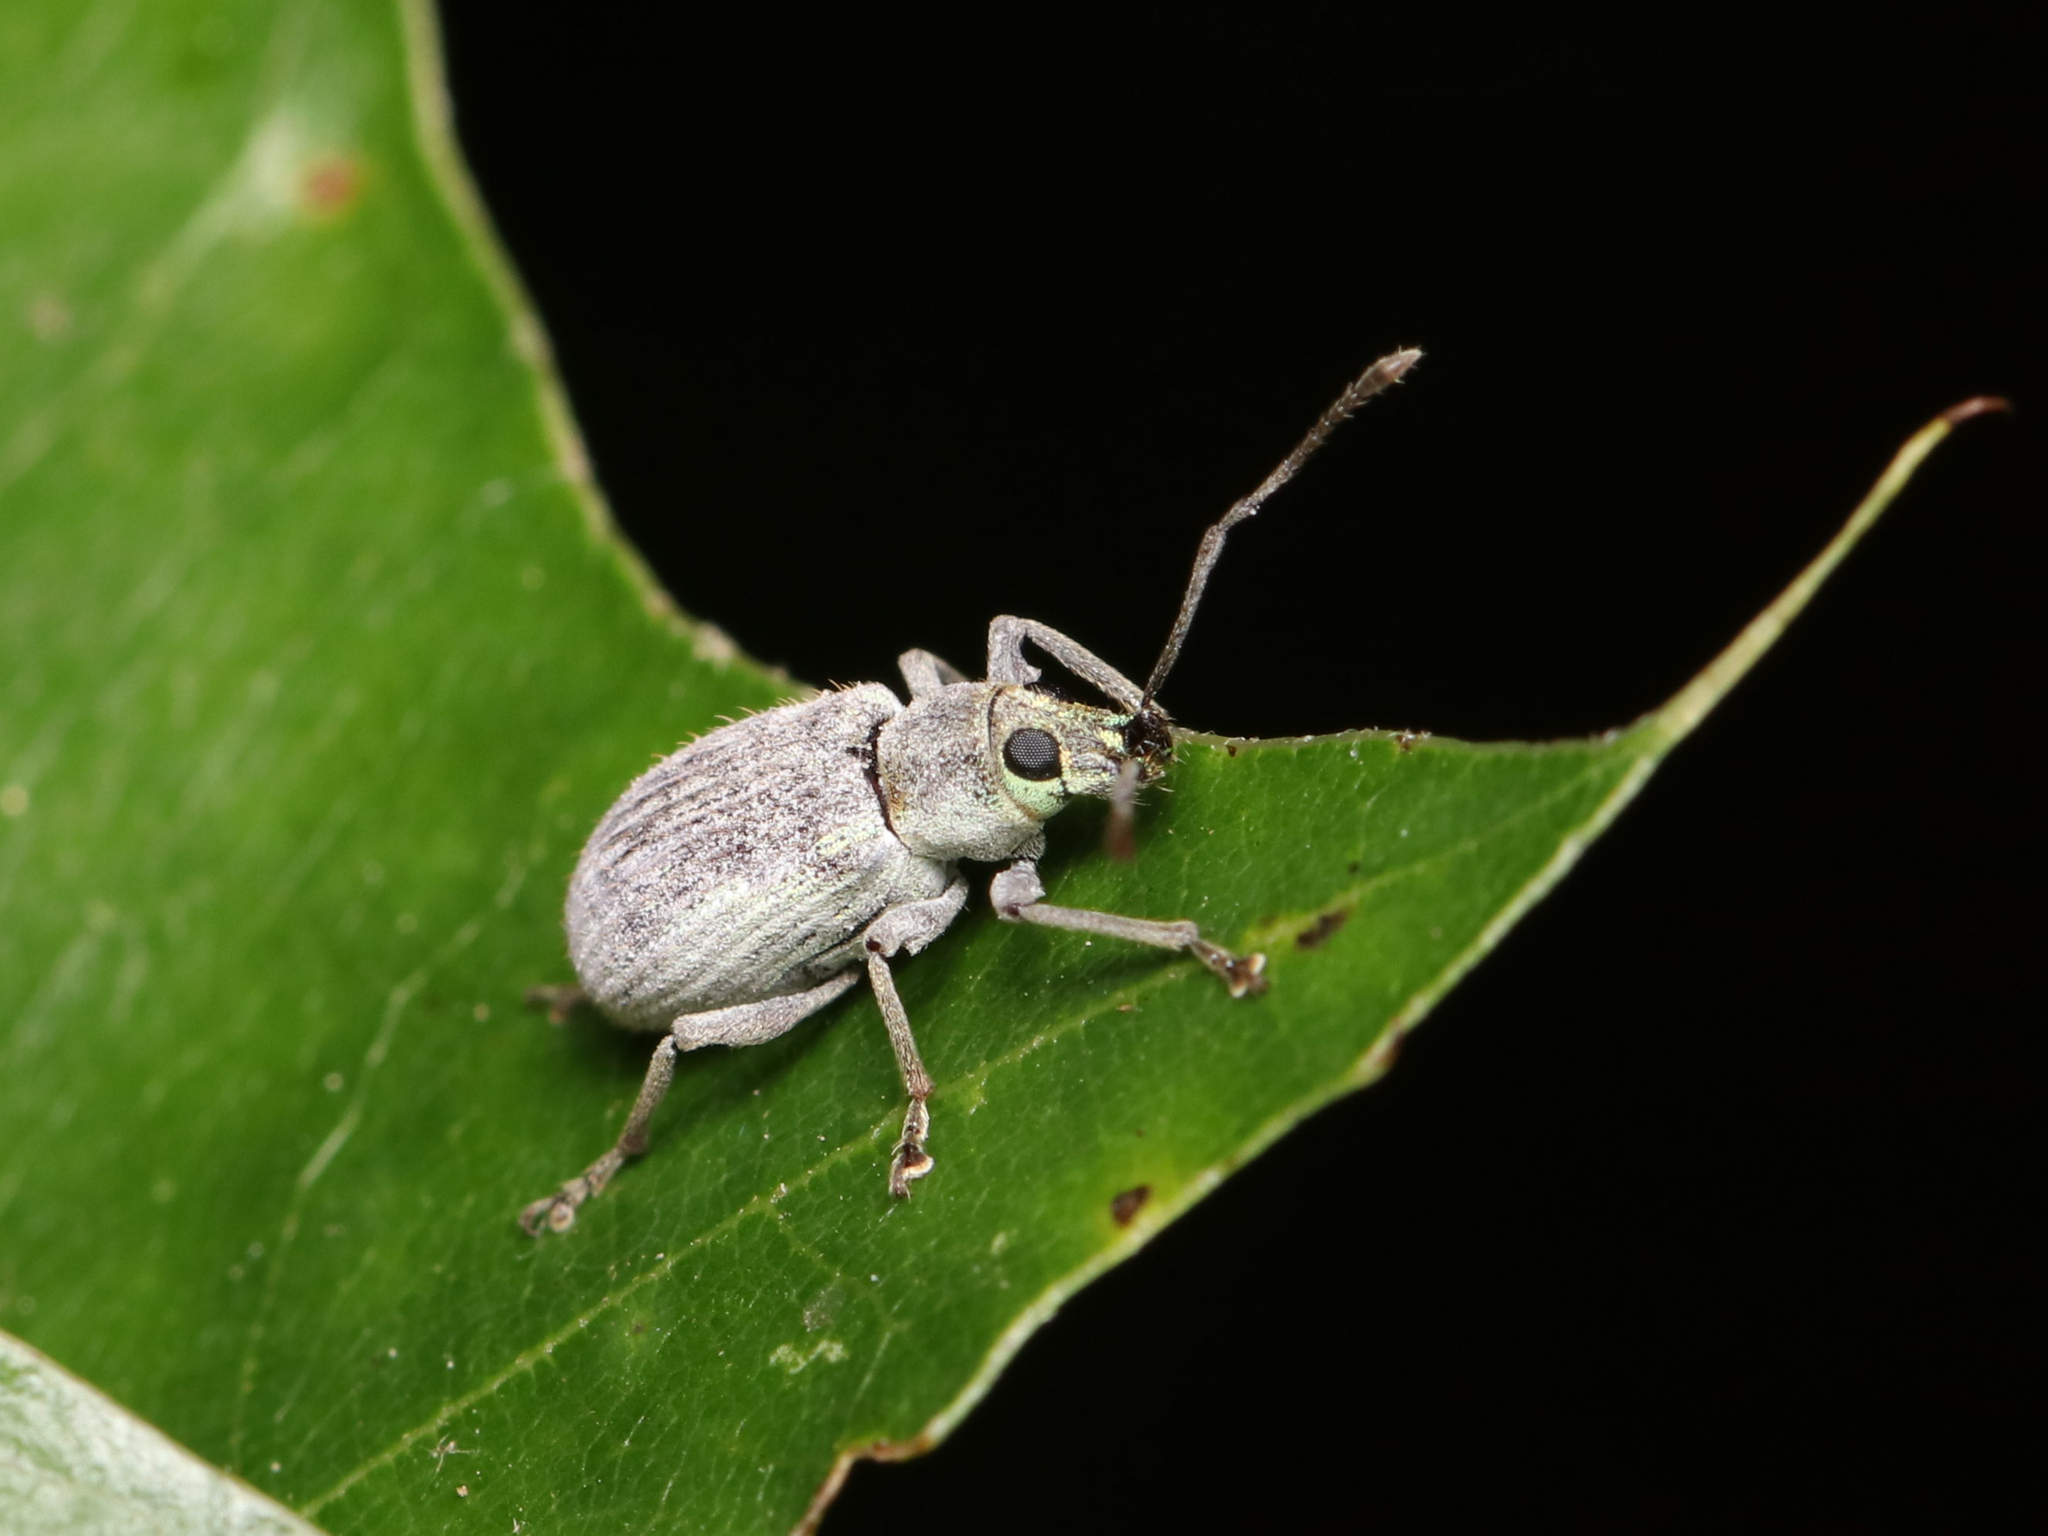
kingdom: Animalia
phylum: Arthropoda
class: Insecta
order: Coleoptera
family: Curculionidae
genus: Cyrtepistomus
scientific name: Cyrtepistomus castaneus
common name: Weevil
